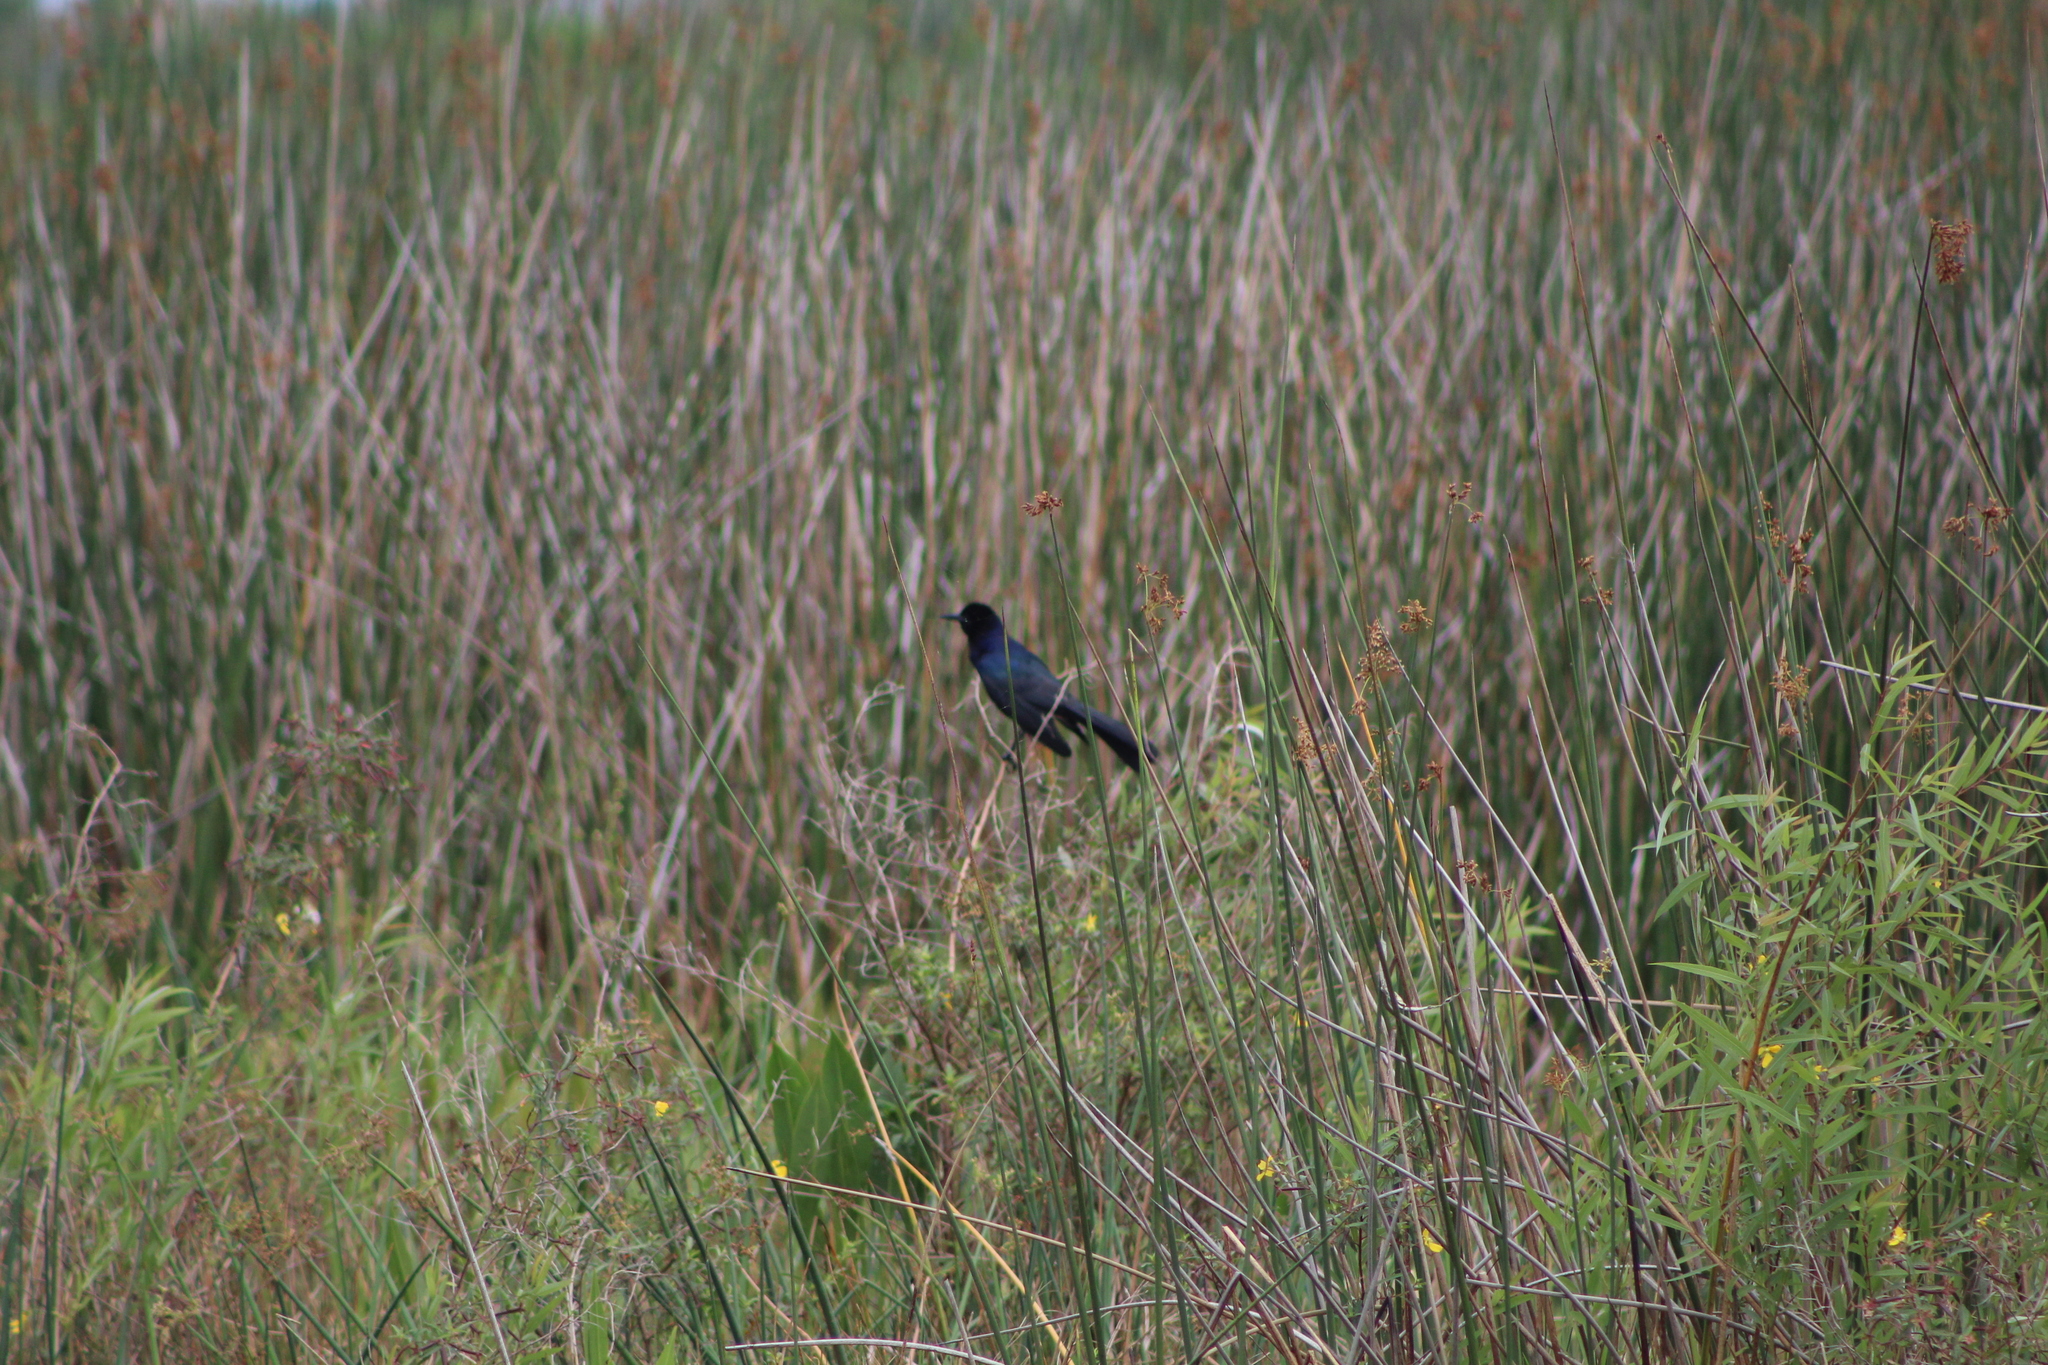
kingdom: Animalia
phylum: Chordata
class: Aves
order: Passeriformes
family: Icteridae
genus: Quiscalus
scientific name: Quiscalus major
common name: Boat-tailed grackle
